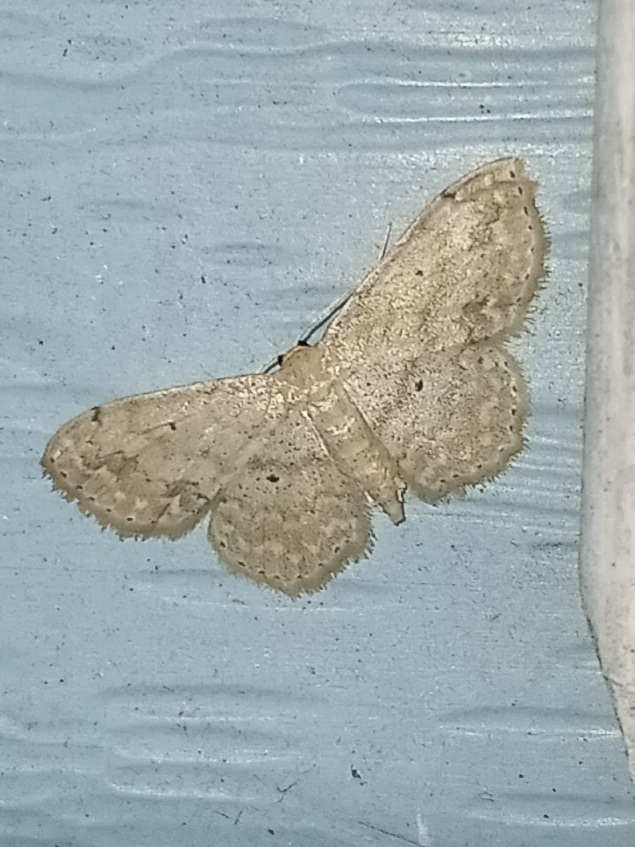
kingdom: Animalia
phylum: Arthropoda
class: Insecta
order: Lepidoptera
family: Geometridae
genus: Scopula
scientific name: Scopula compensata
